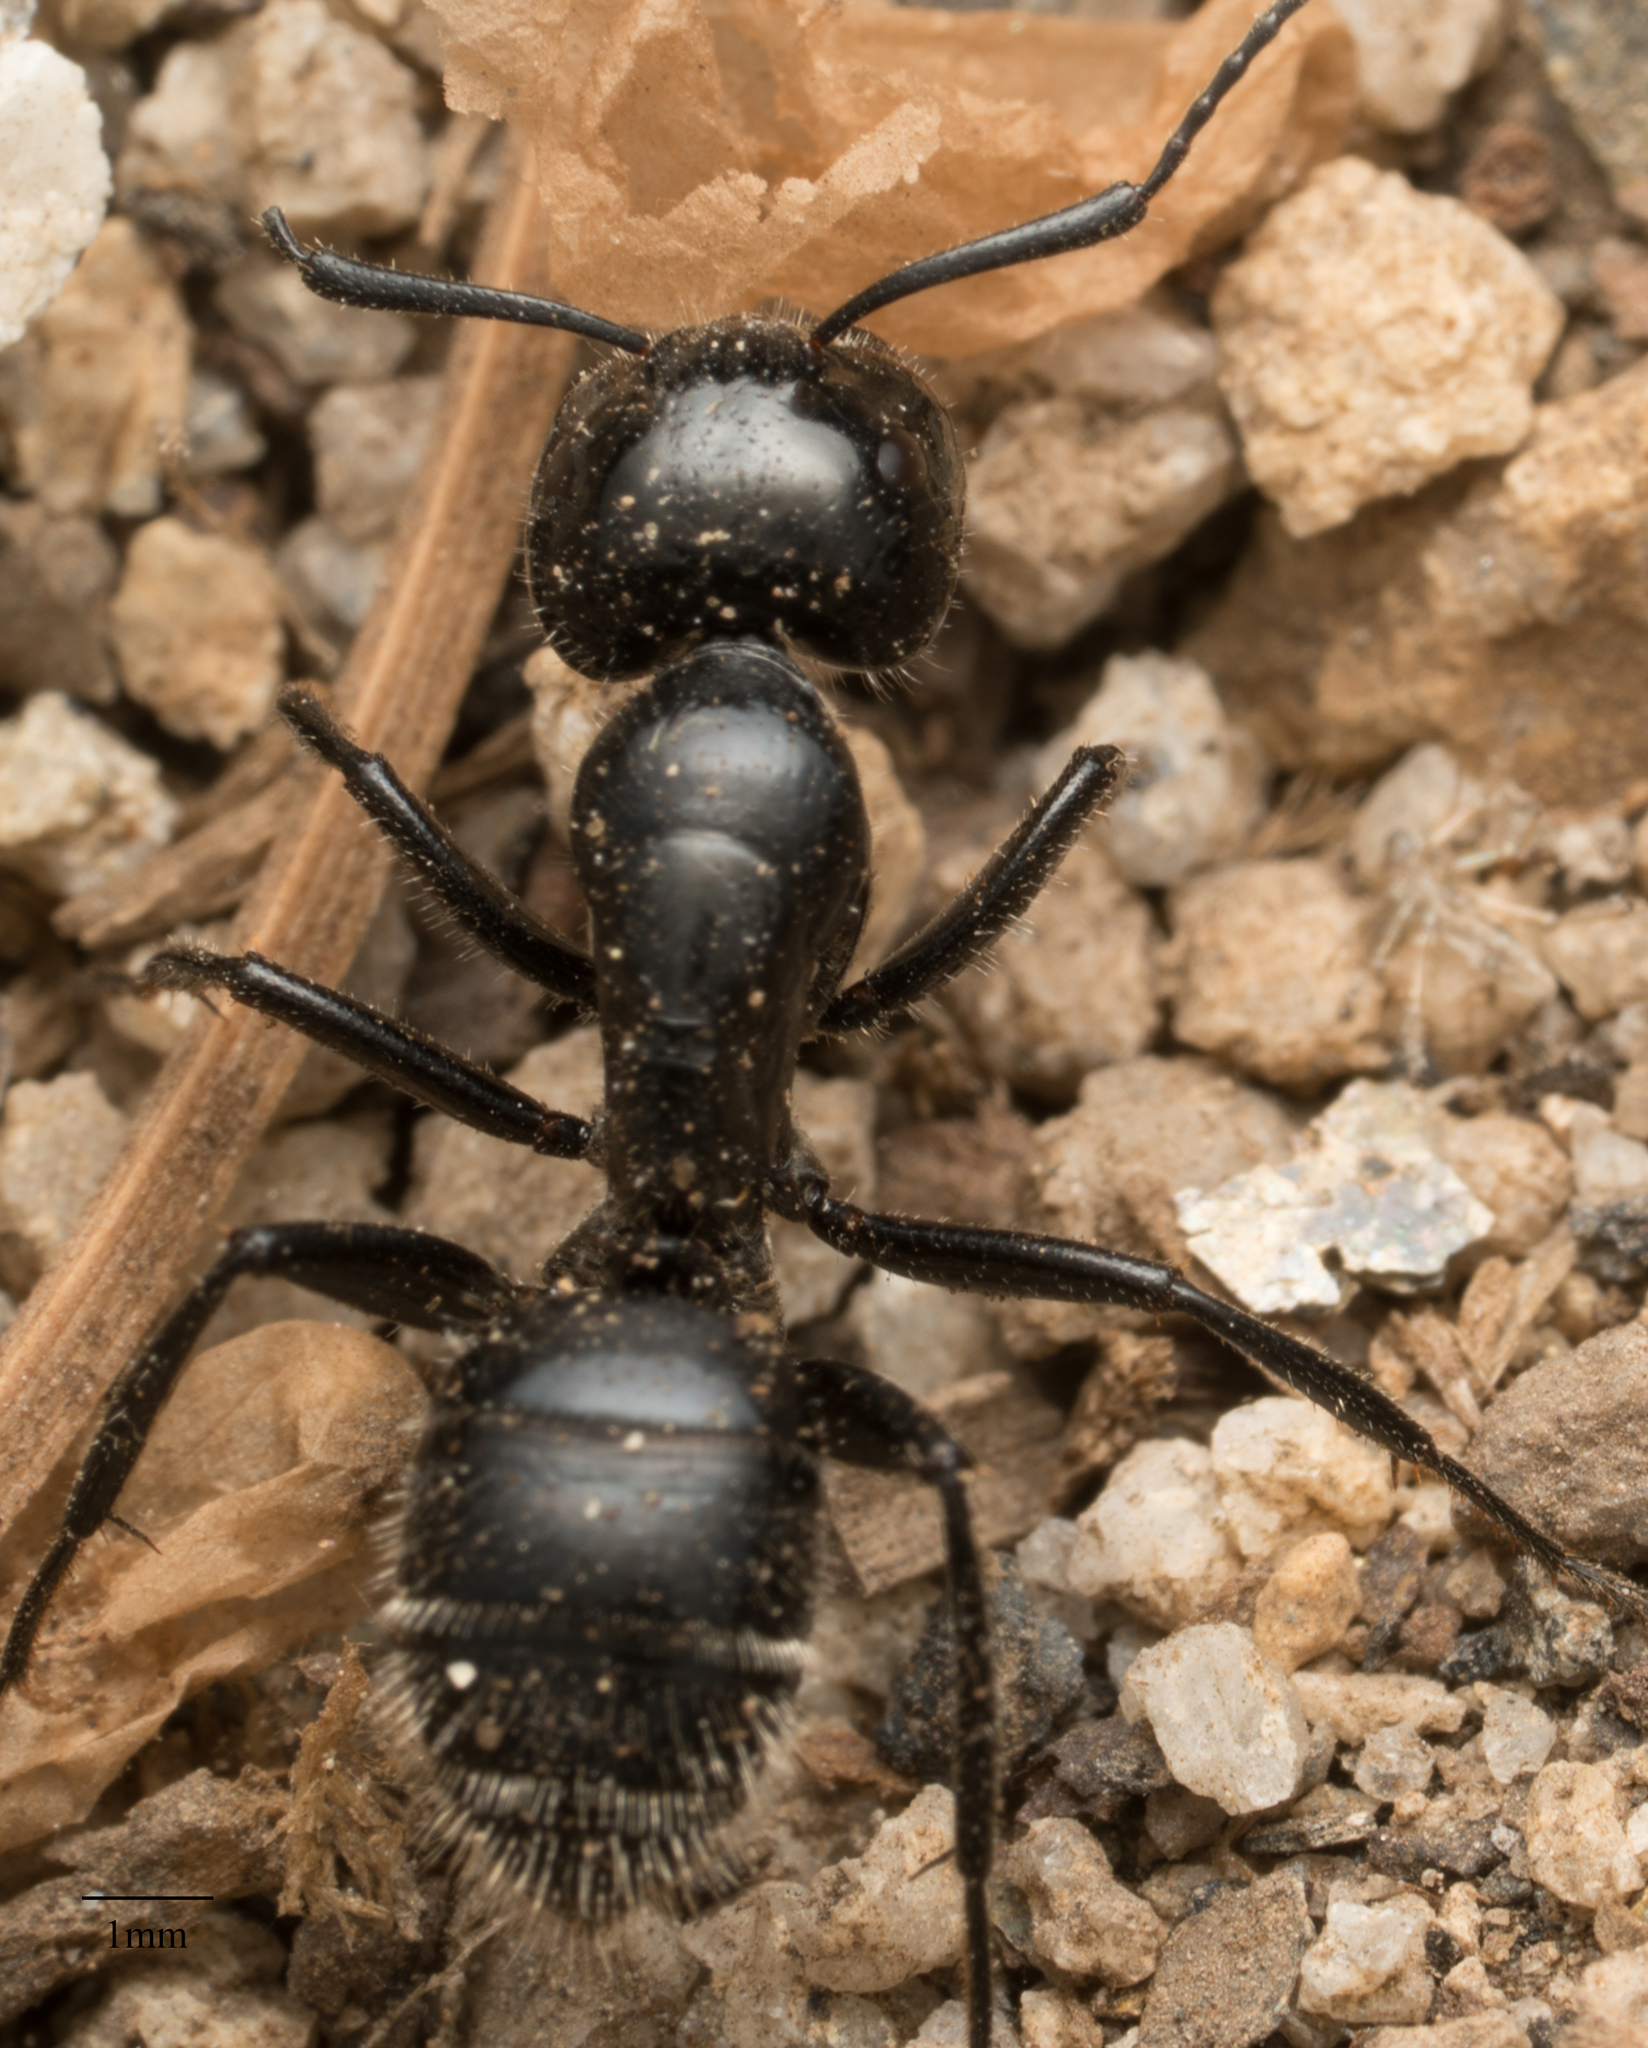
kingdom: Animalia
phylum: Arthropoda
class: Insecta
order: Hymenoptera
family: Formicidae
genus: Camponotus
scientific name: Camponotus
